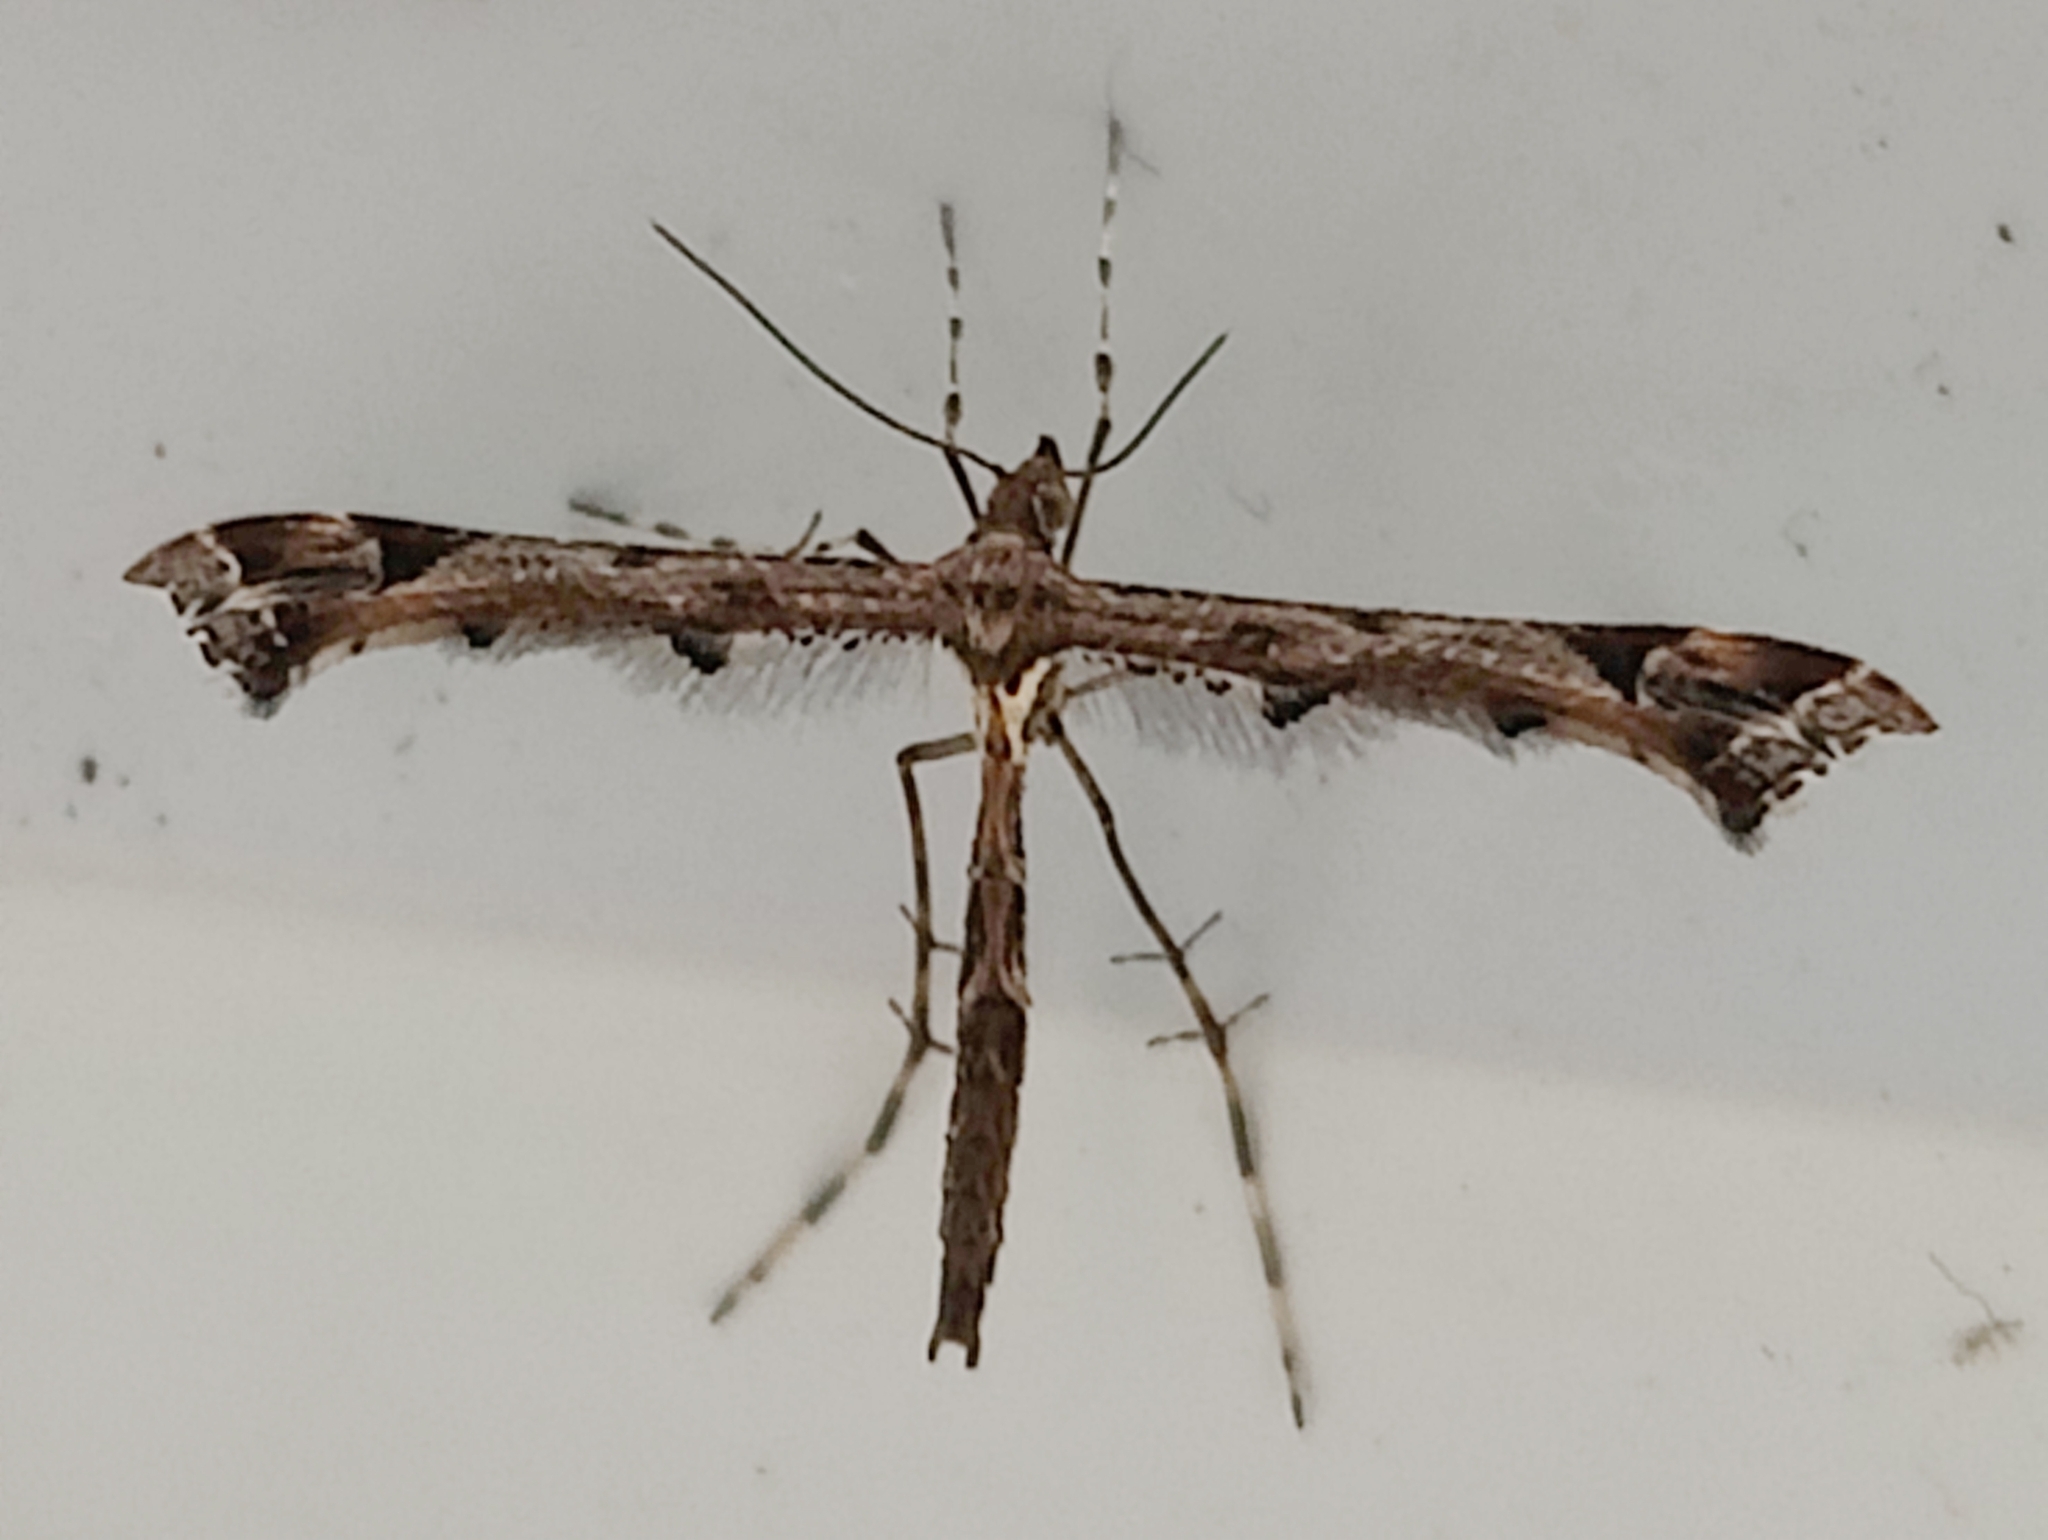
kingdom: Animalia
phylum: Arthropoda
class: Insecta
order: Lepidoptera
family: Pterophoridae
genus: Amblyptilia
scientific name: Amblyptilia acanthadactyla
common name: Beautiful plume
